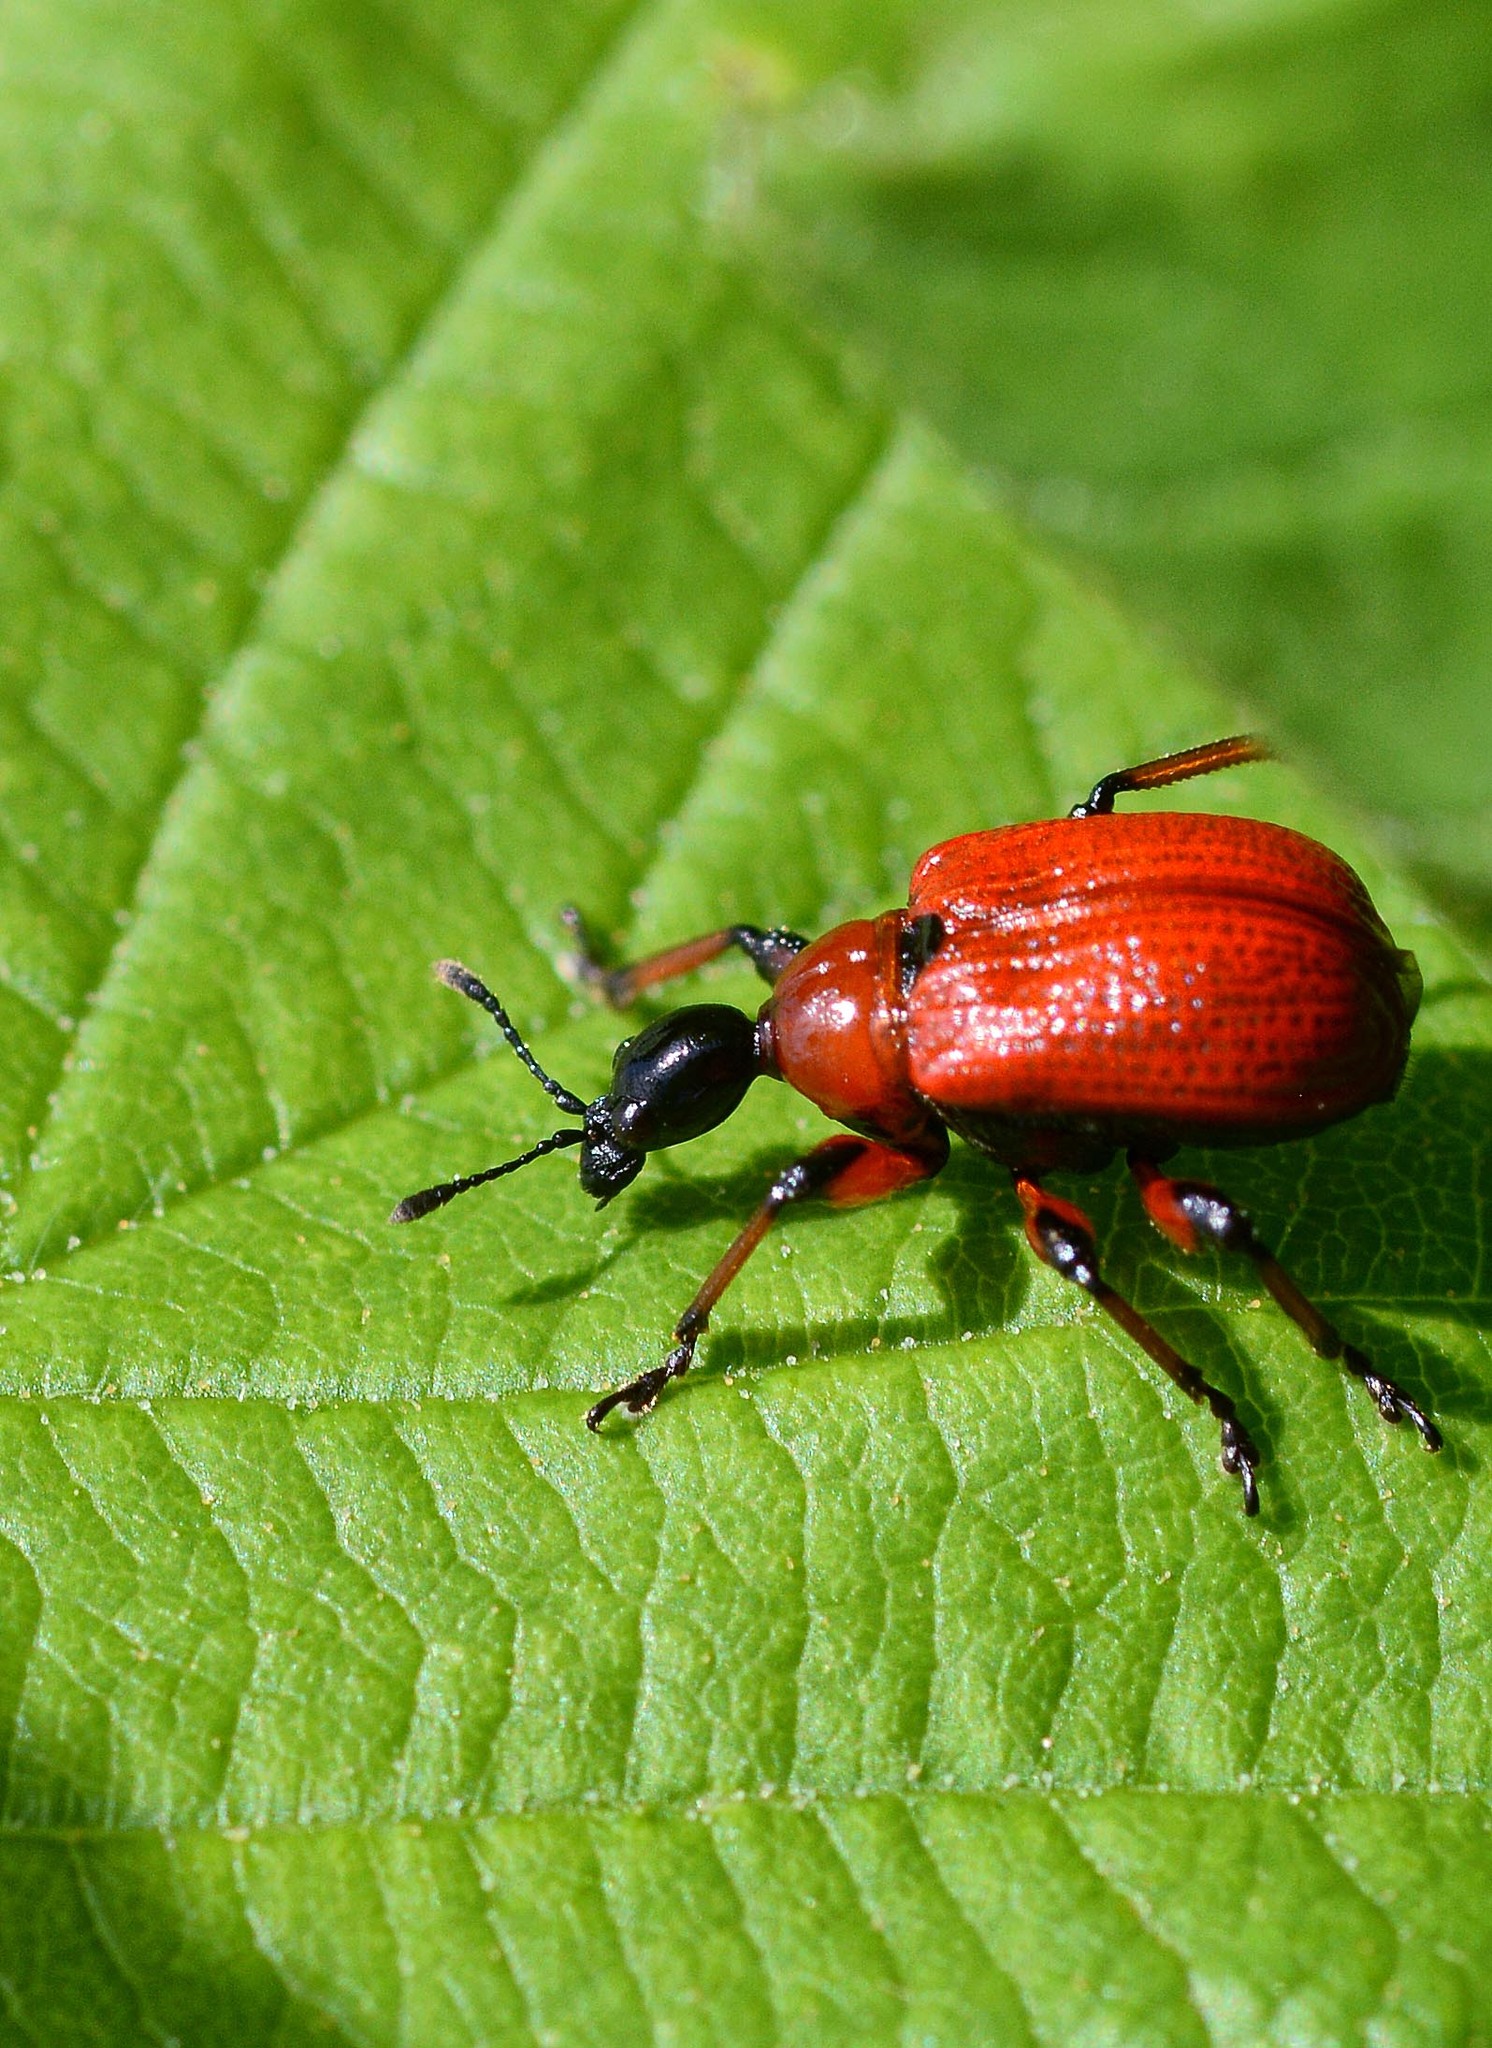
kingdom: Animalia
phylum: Arthropoda
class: Insecta
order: Coleoptera
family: Attelabidae
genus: Apoderus
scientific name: Apoderus coryli
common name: Hazel leaf roller
